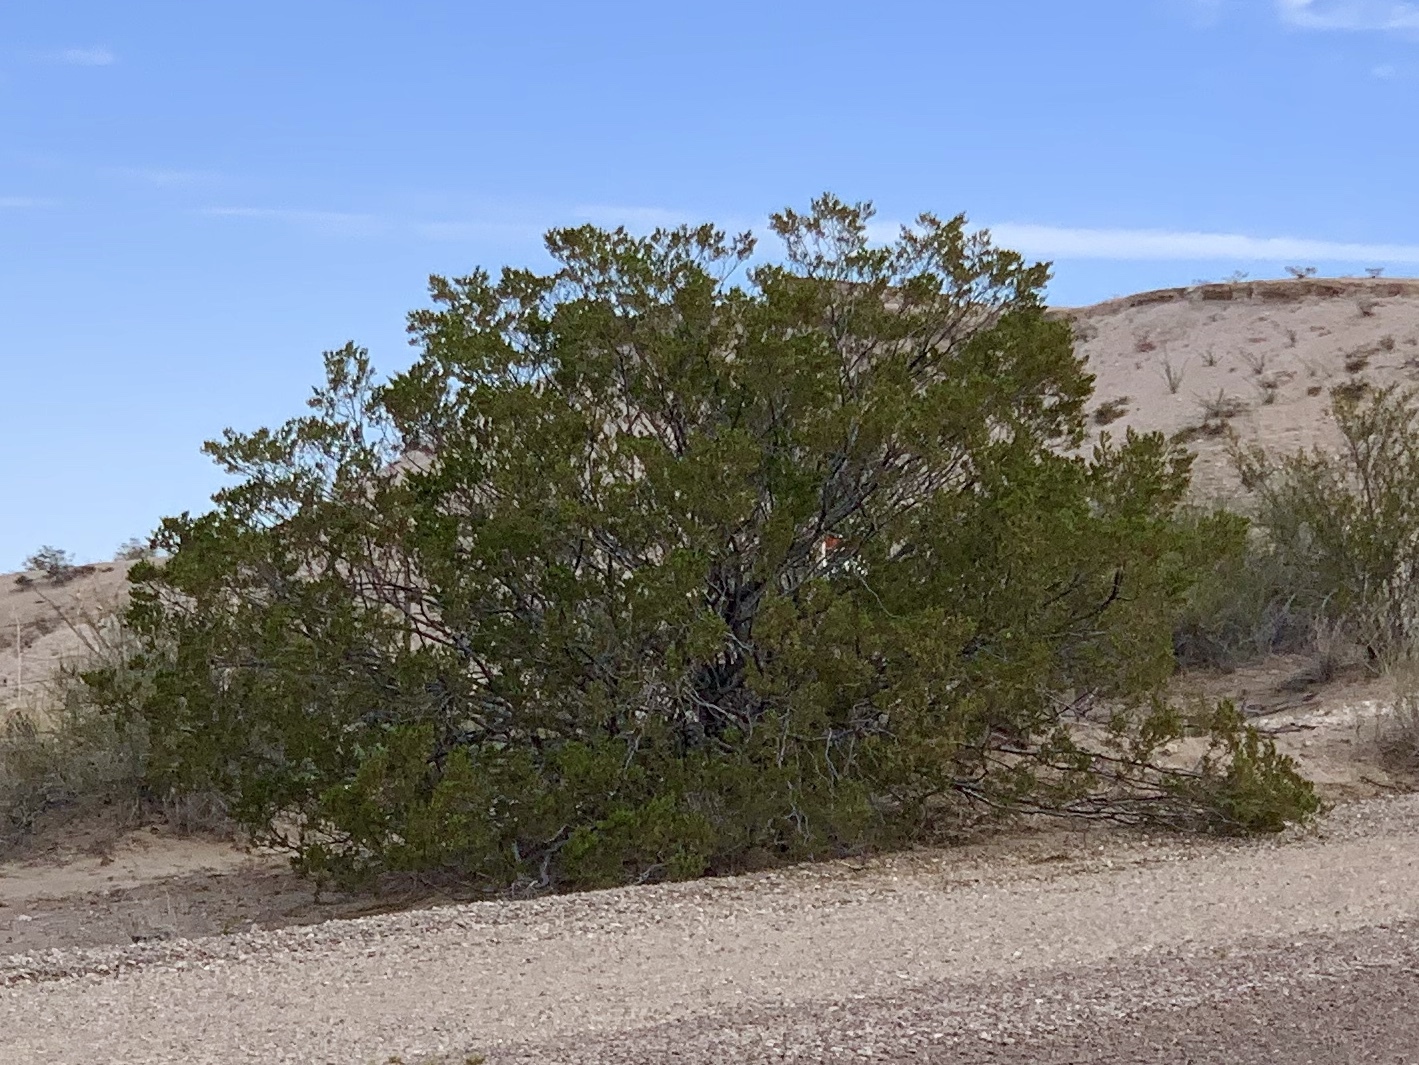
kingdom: Plantae
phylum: Tracheophyta
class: Magnoliopsida
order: Zygophyllales
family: Zygophyllaceae
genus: Larrea
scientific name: Larrea tridentata
